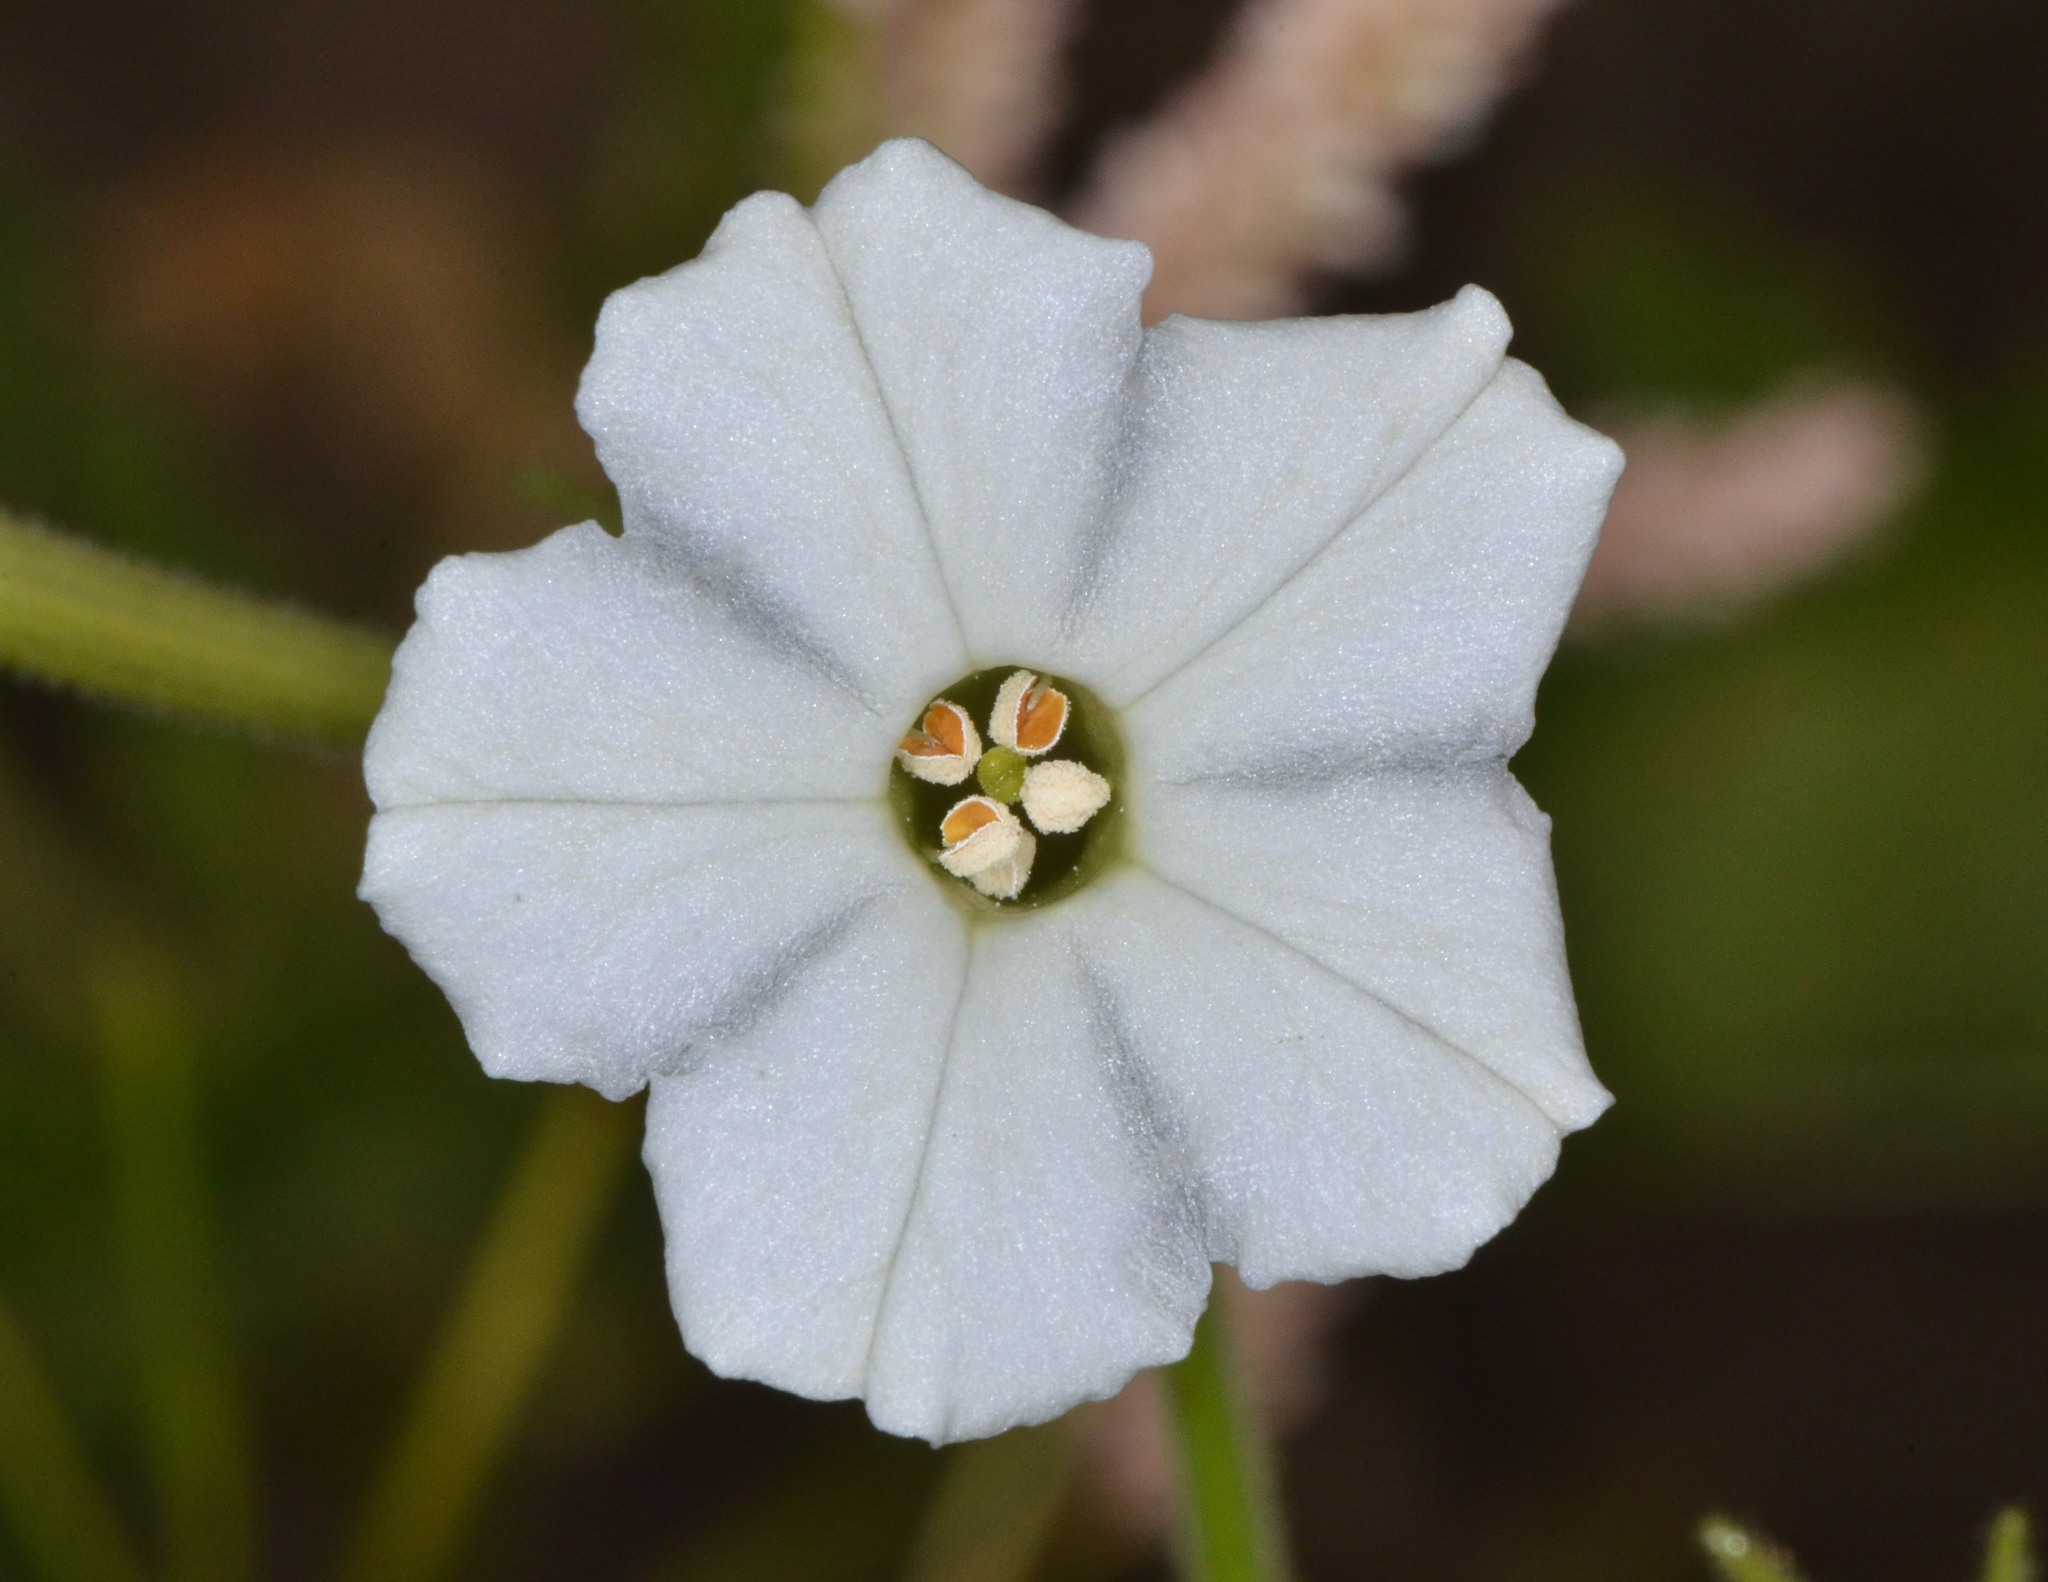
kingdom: Plantae
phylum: Tracheophyta
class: Magnoliopsida
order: Solanales
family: Solanaceae
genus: Nicotiana
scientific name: Nicotiana acuminata
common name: Manyflower tobacco
